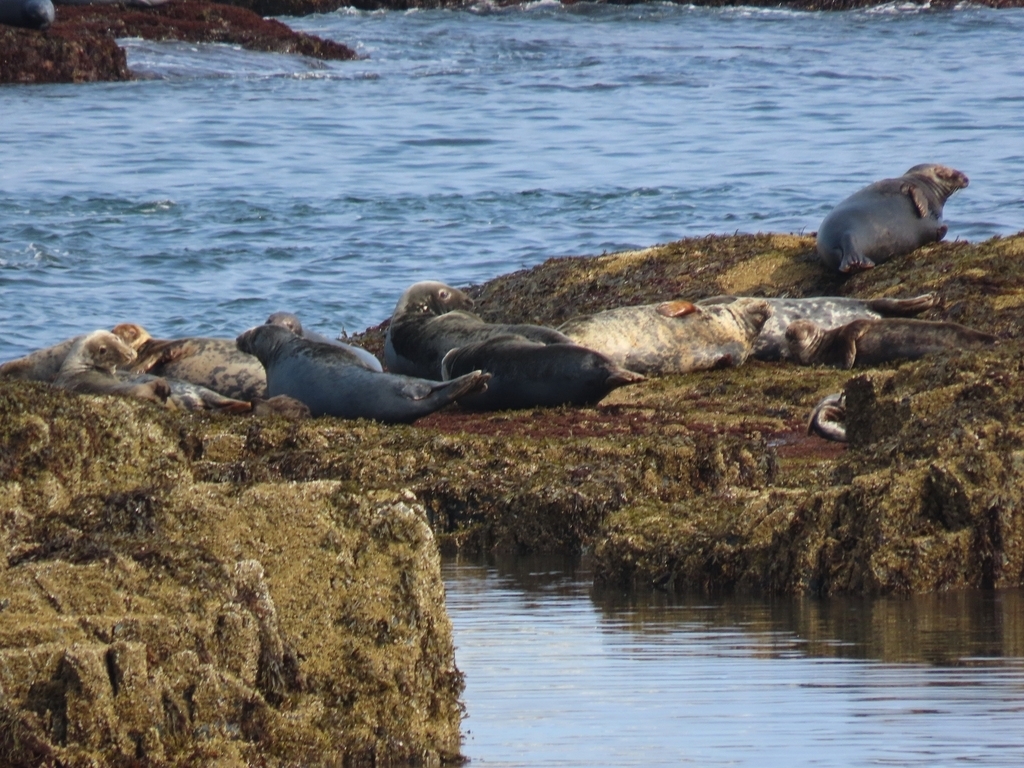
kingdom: Animalia
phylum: Chordata
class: Mammalia
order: Carnivora
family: Phocidae
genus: Halichoerus
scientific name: Halichoerus grypus
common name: Grey seal
